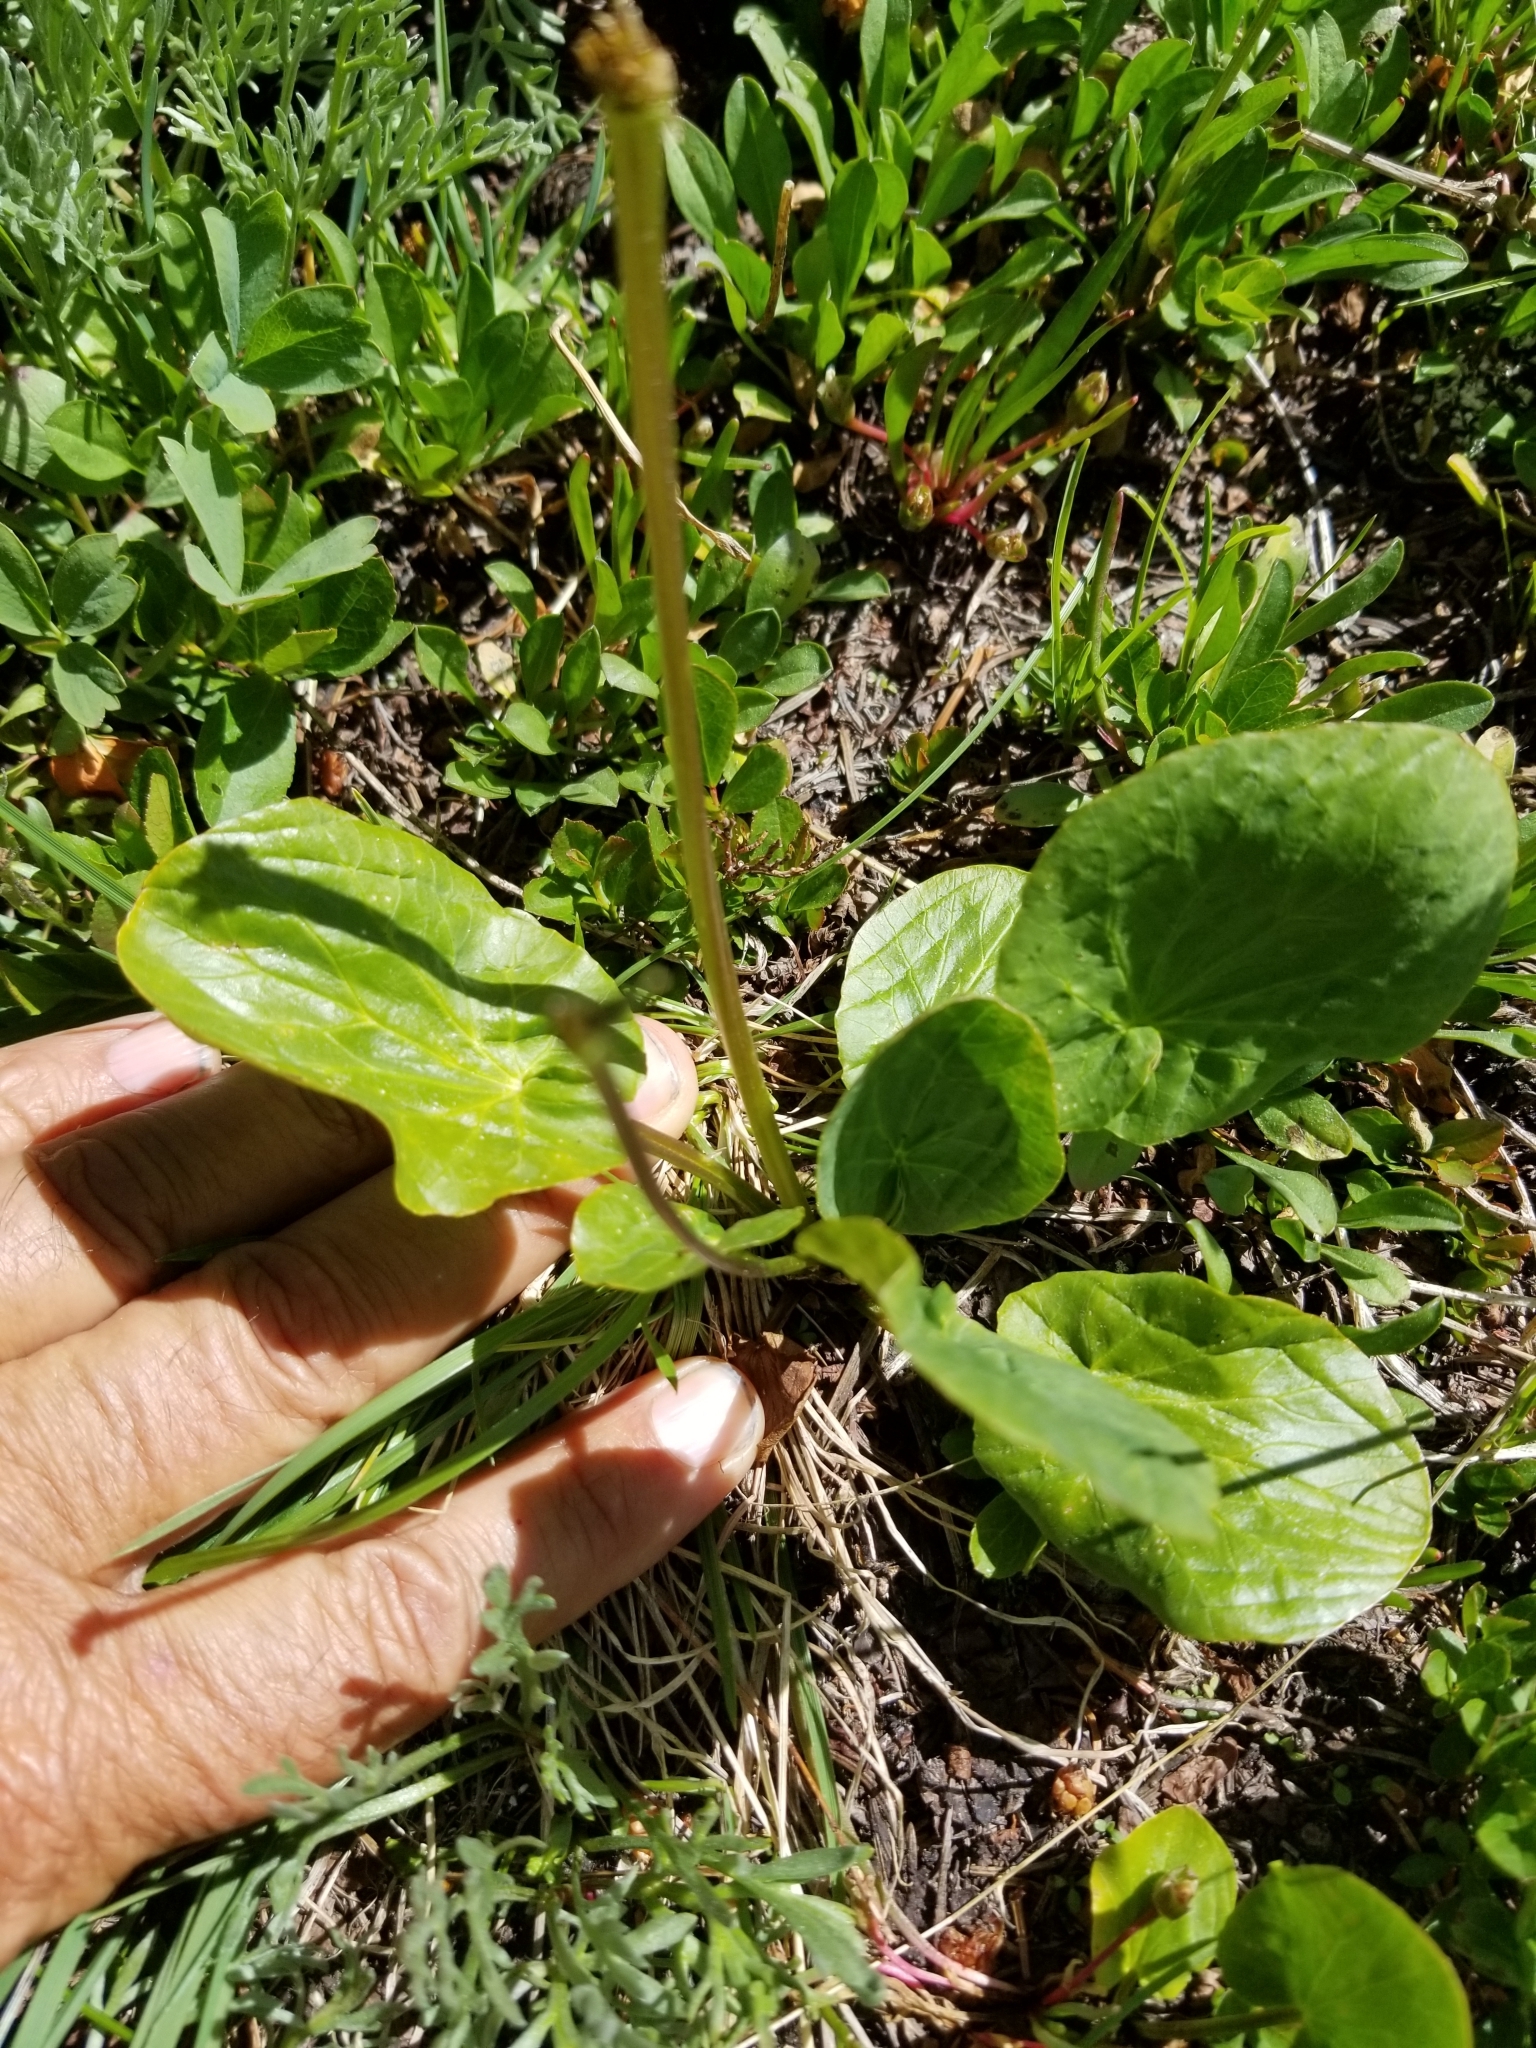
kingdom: Plantae
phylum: Tracheophyta
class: Magnoliopsida
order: Ranunculales
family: Ranunculaceae
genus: Caltha
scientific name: Caltha leptosepala
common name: Elkslip
